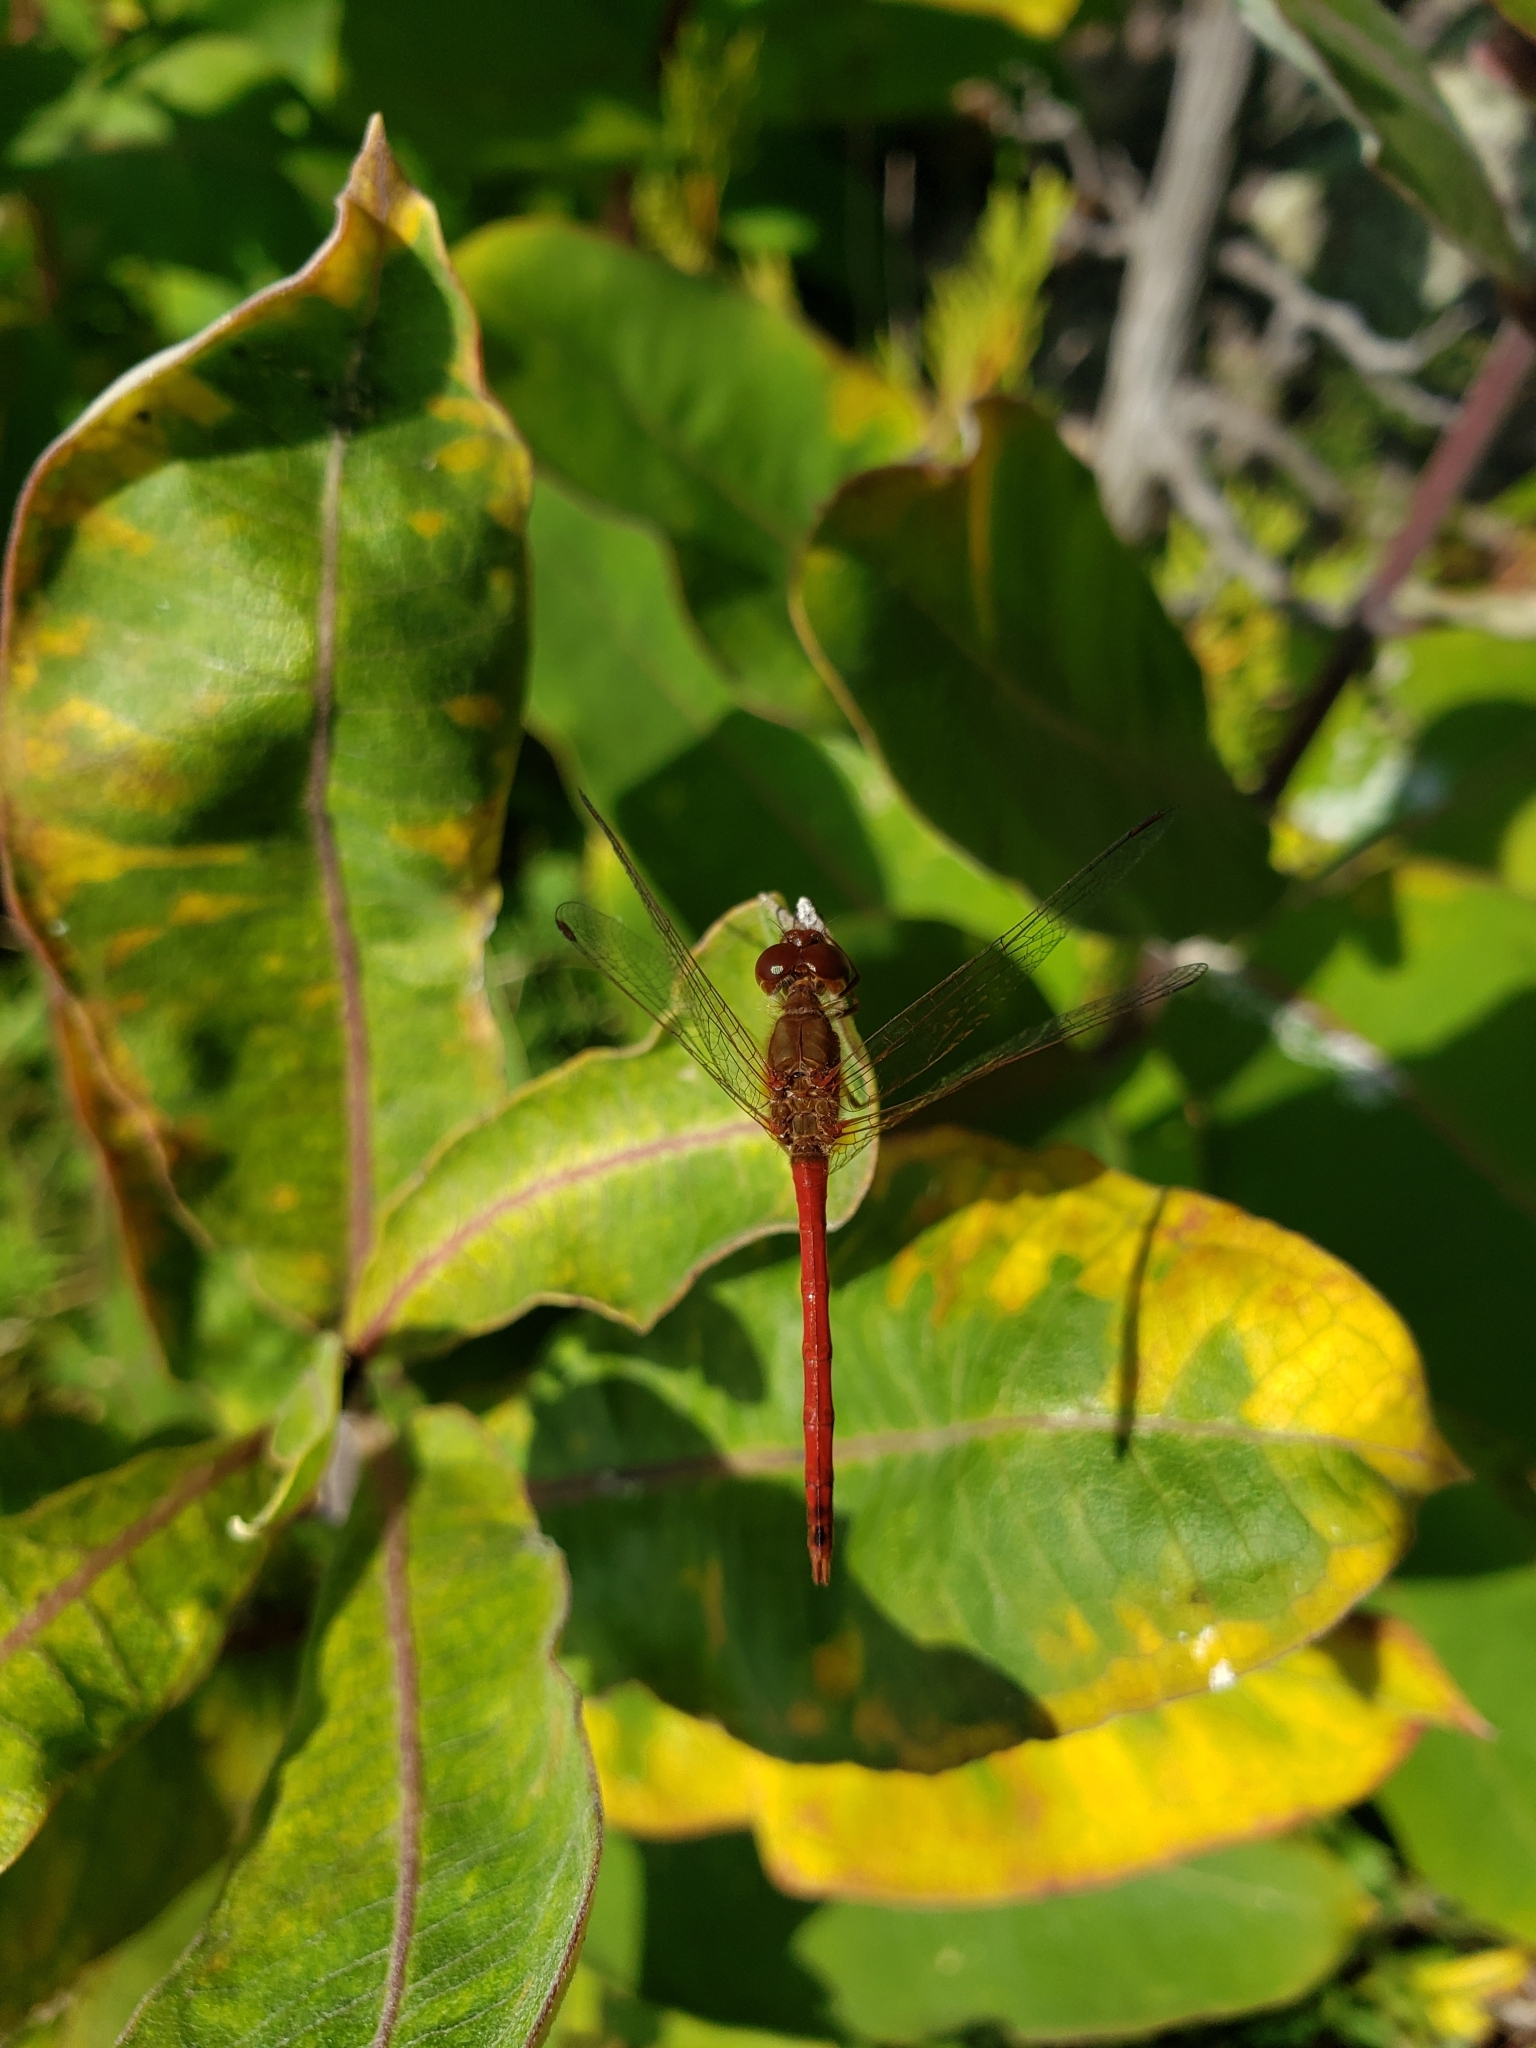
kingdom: Animalia
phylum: Arthropoda
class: Insecta
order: Odonata
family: Libellulidae
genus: Sympetrum
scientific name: Sympetrum vicinum
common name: Autumn meadowhawk
